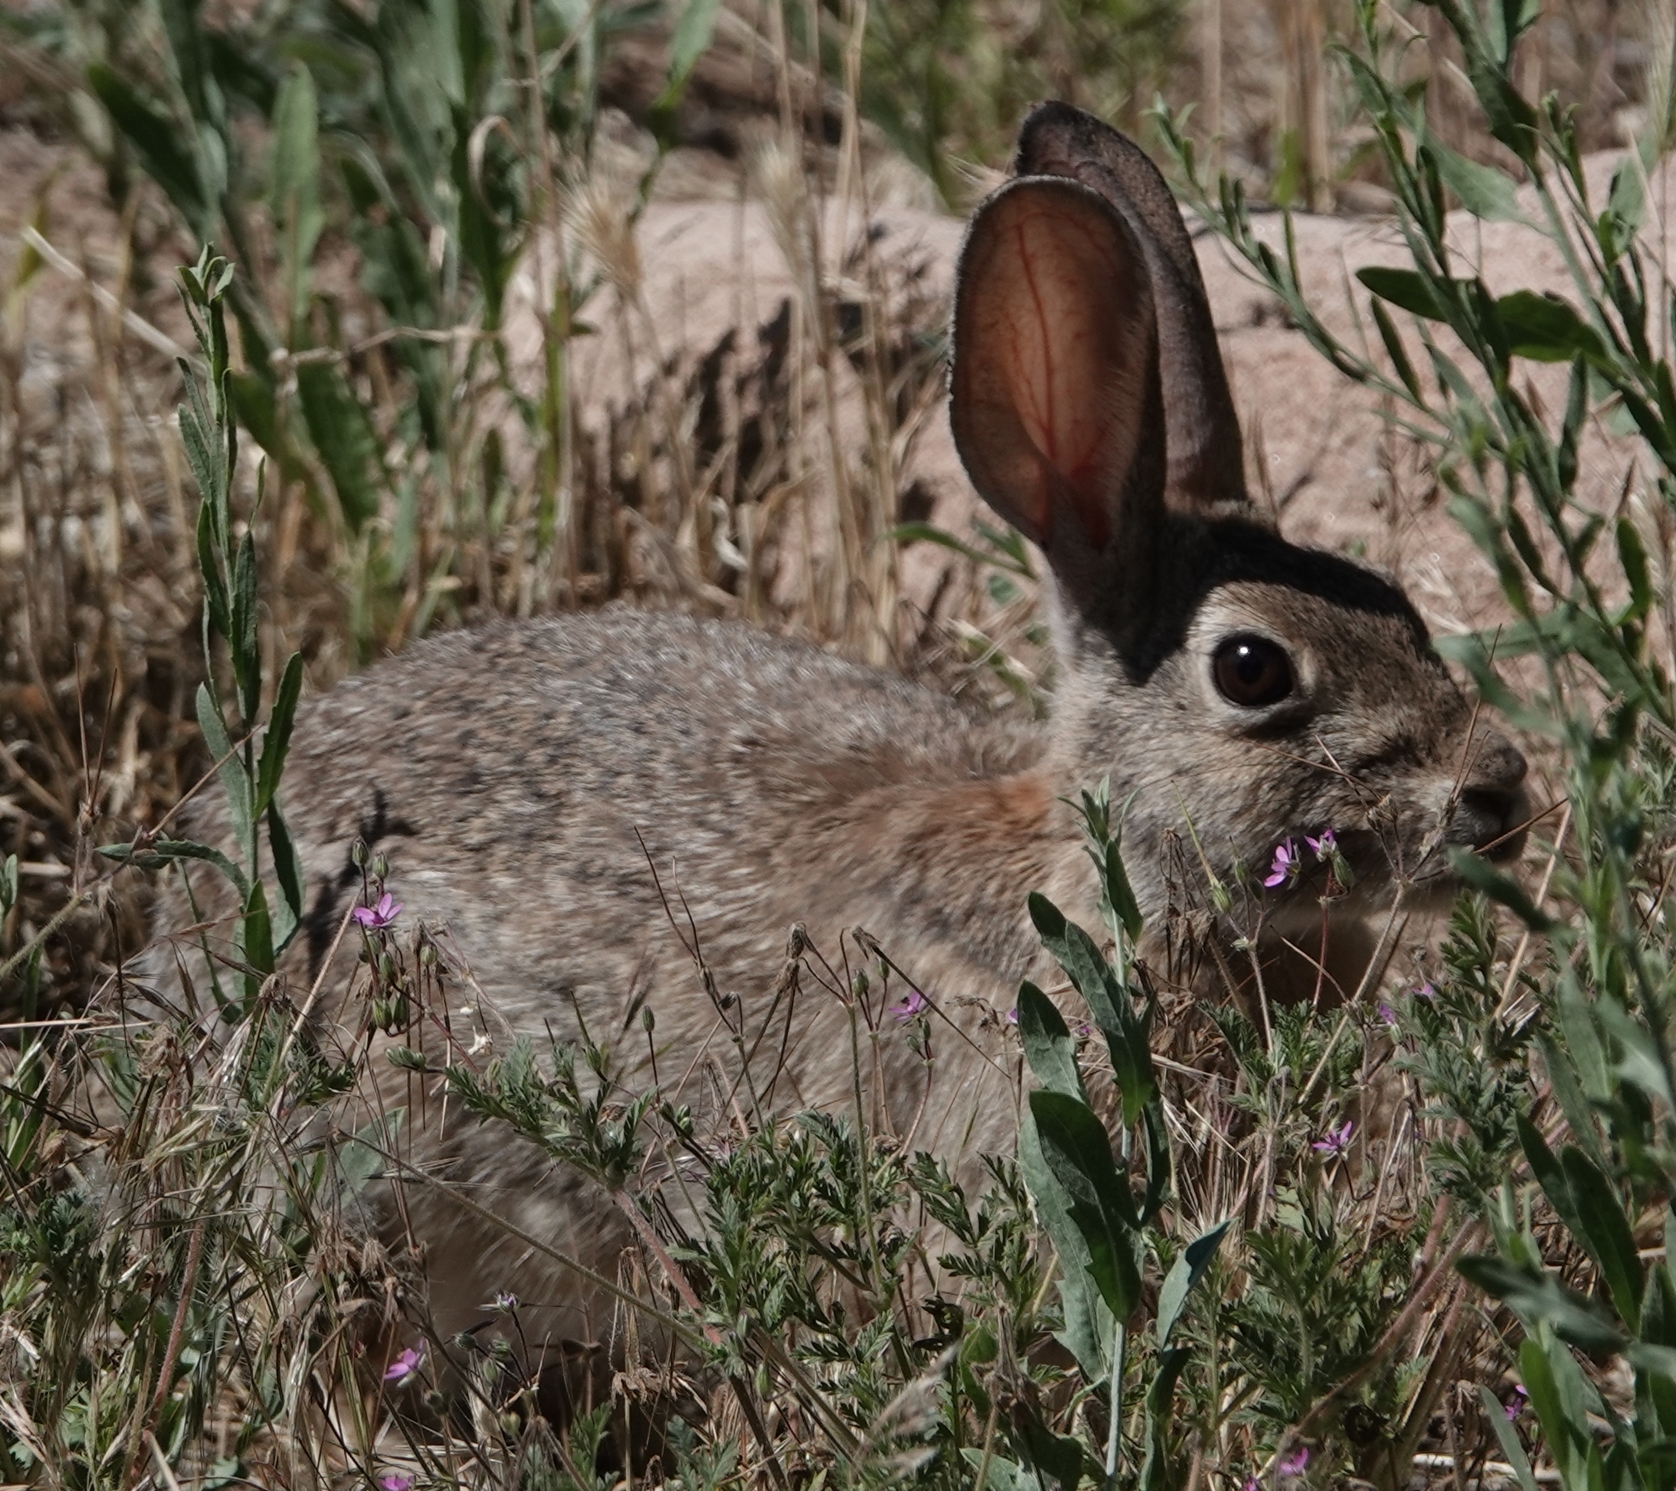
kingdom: Animalia
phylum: Chordata
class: Mammalia
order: Lagomorpha
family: Leporidae
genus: Sylvilagus
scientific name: Sylvilagus audubonii
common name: Desert cottontail
